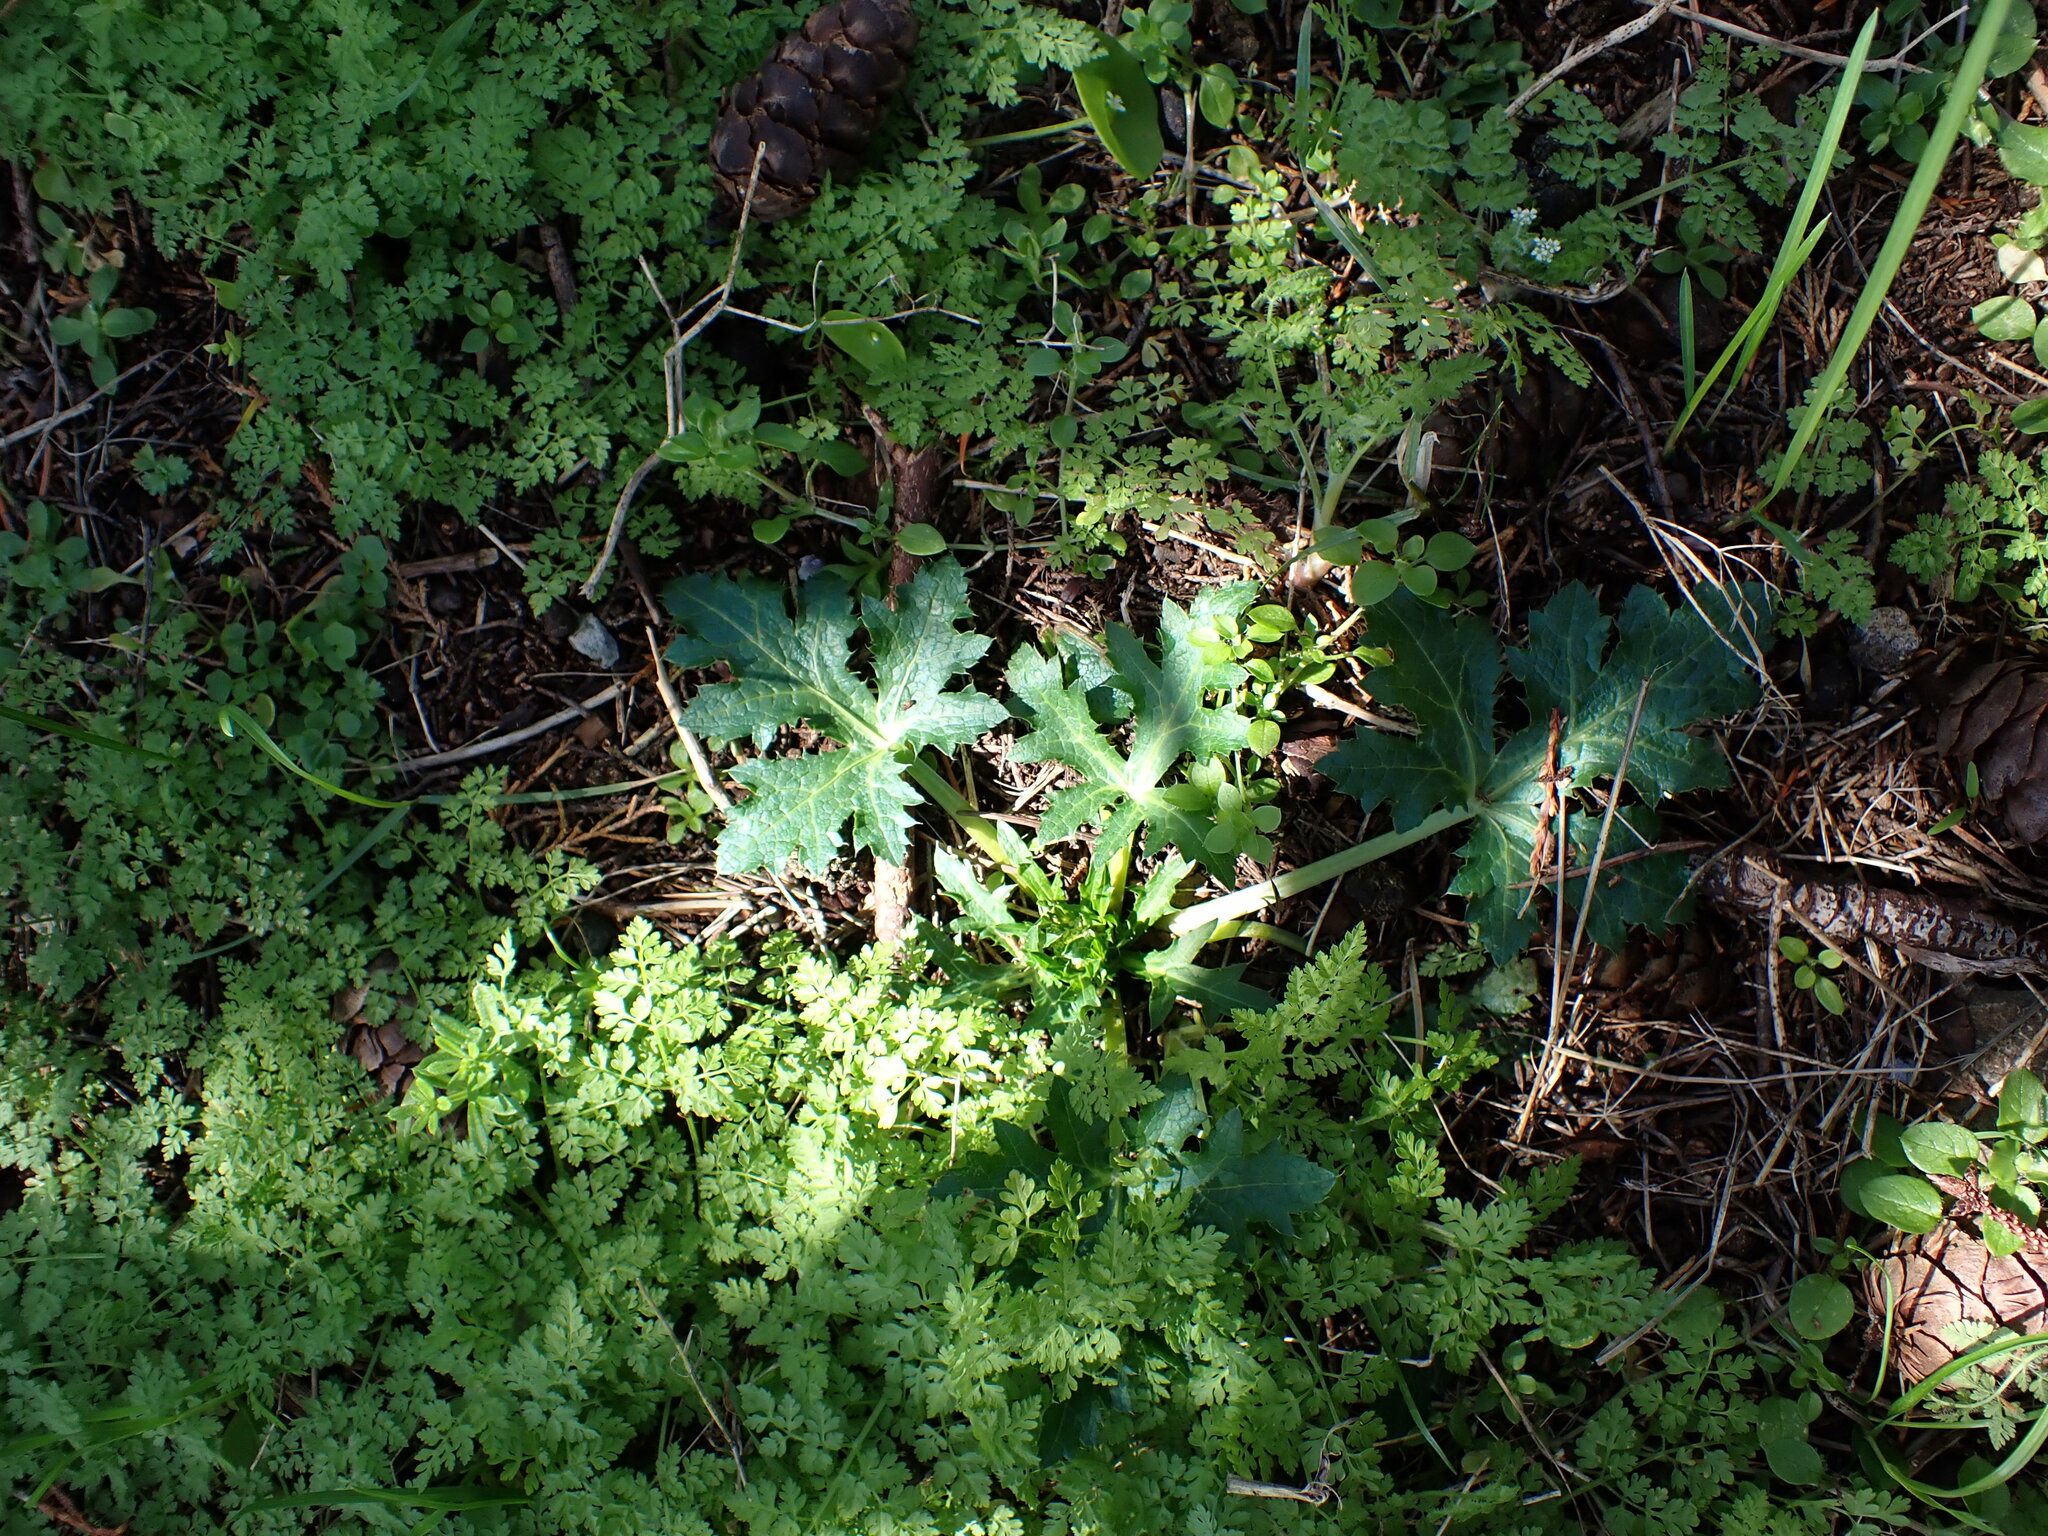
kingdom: Plantae
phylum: Tracheophyta
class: Magnoliopsida
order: Apiales
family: Apiaceae
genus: Sanicula
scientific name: Sanicula crassicaulis
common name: Western snakeroot
